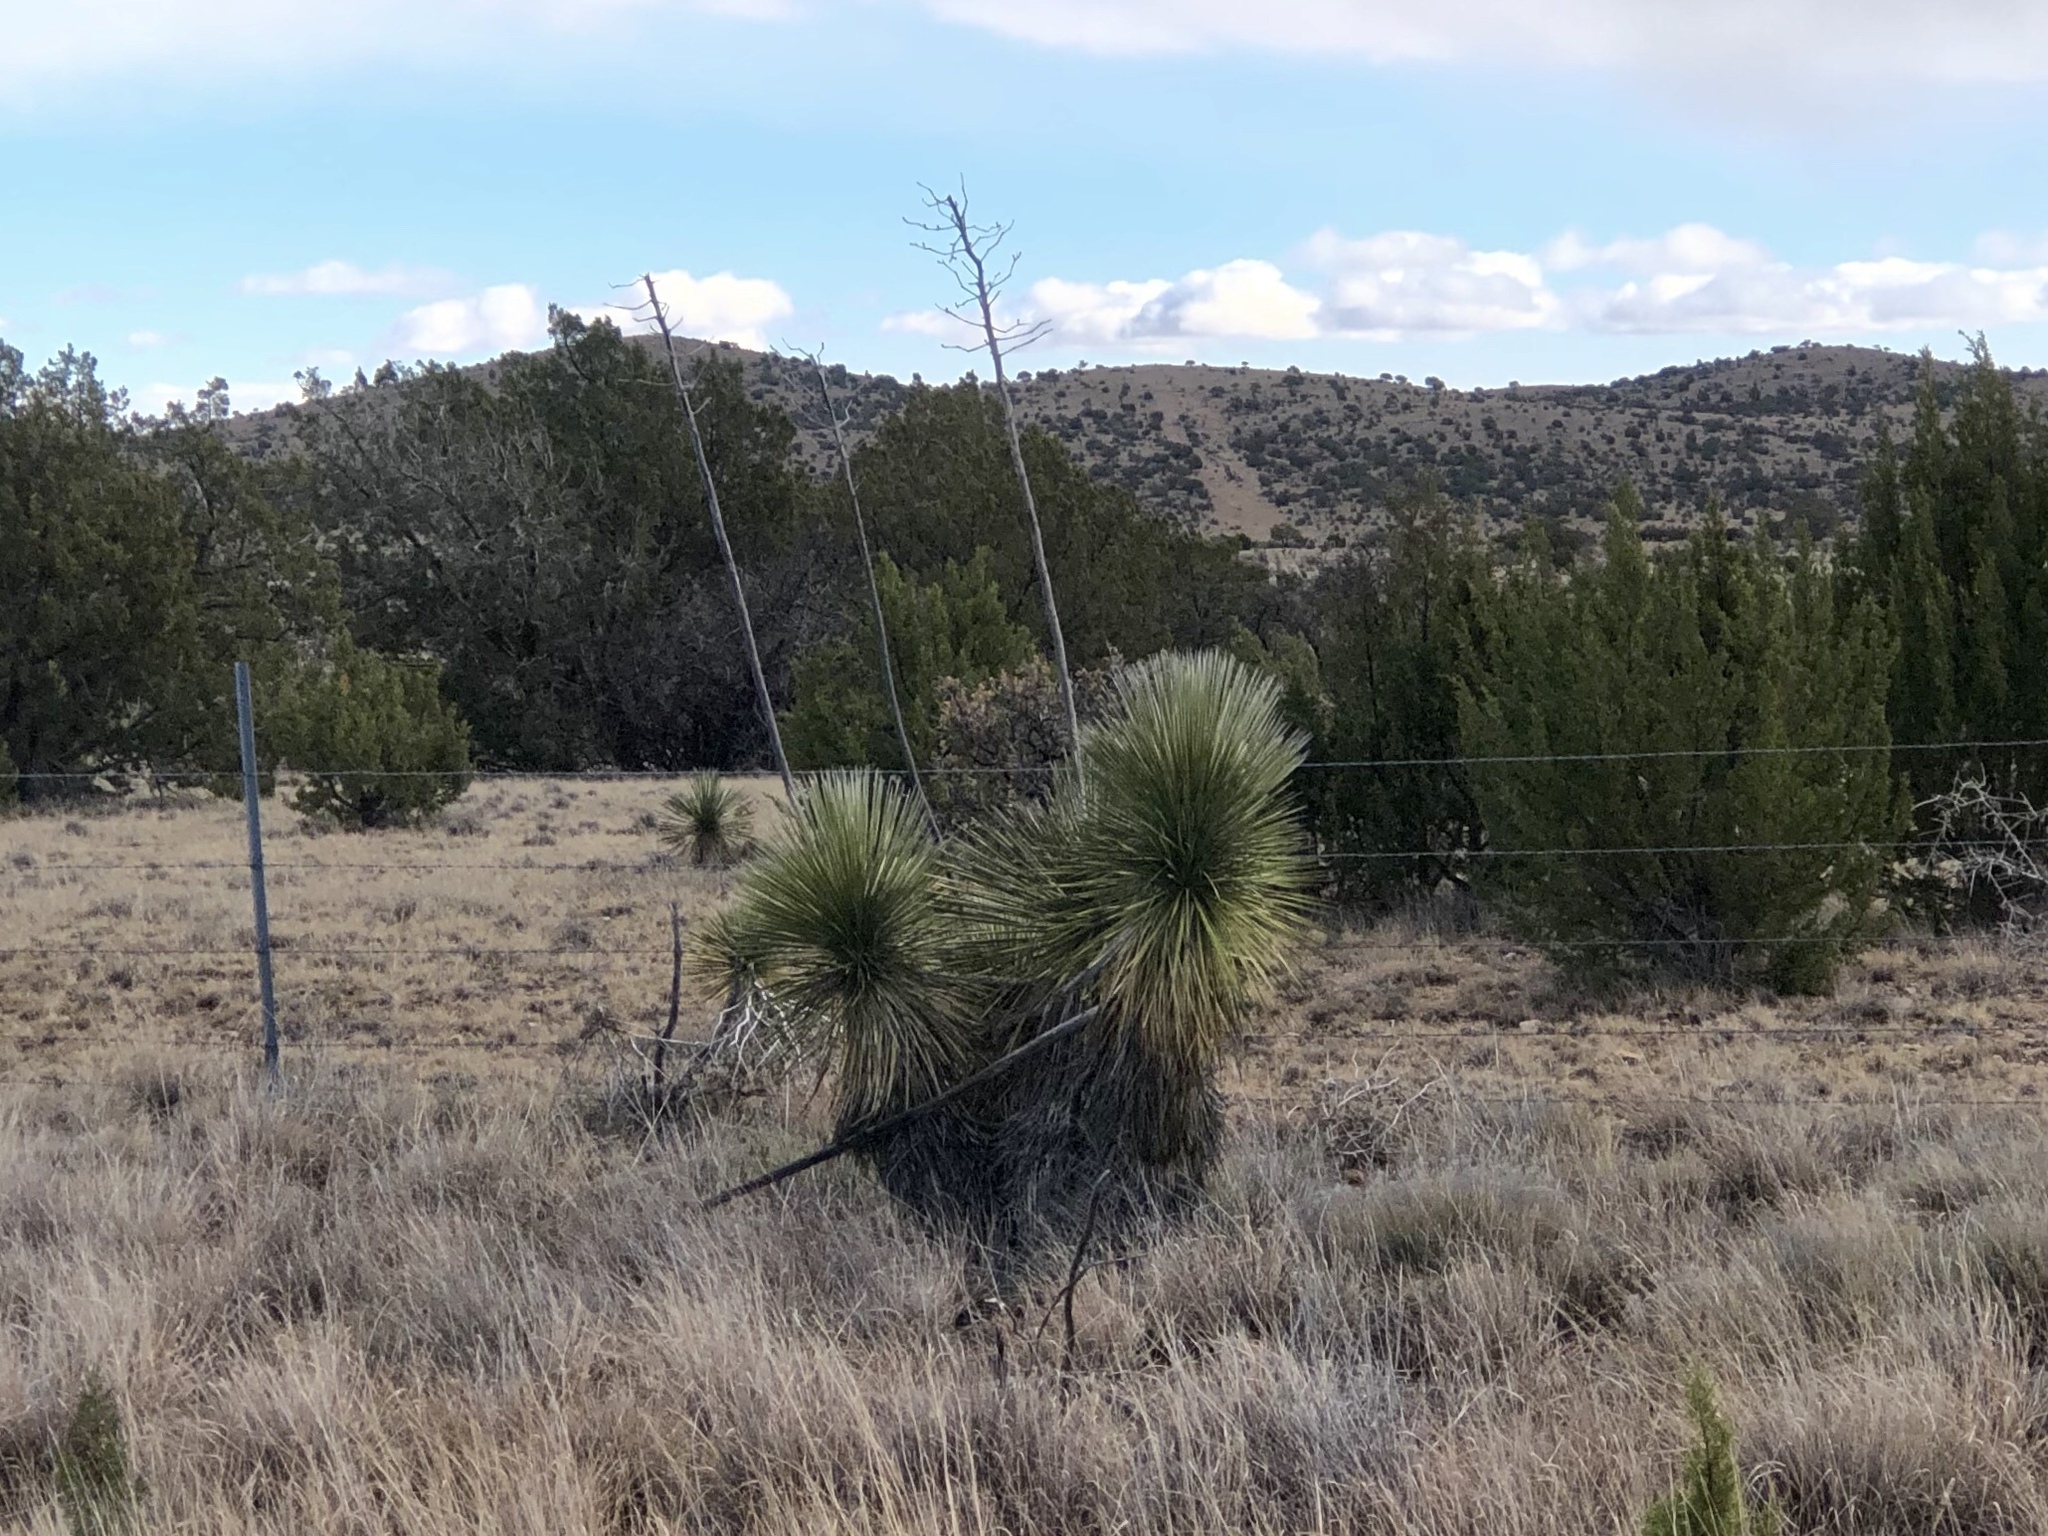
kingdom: Plantae
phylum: Tracheophyta
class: Liliopsida
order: Asparagales
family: Asparagaceae
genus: Yucca
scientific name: Yucca elata
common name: Palmella
